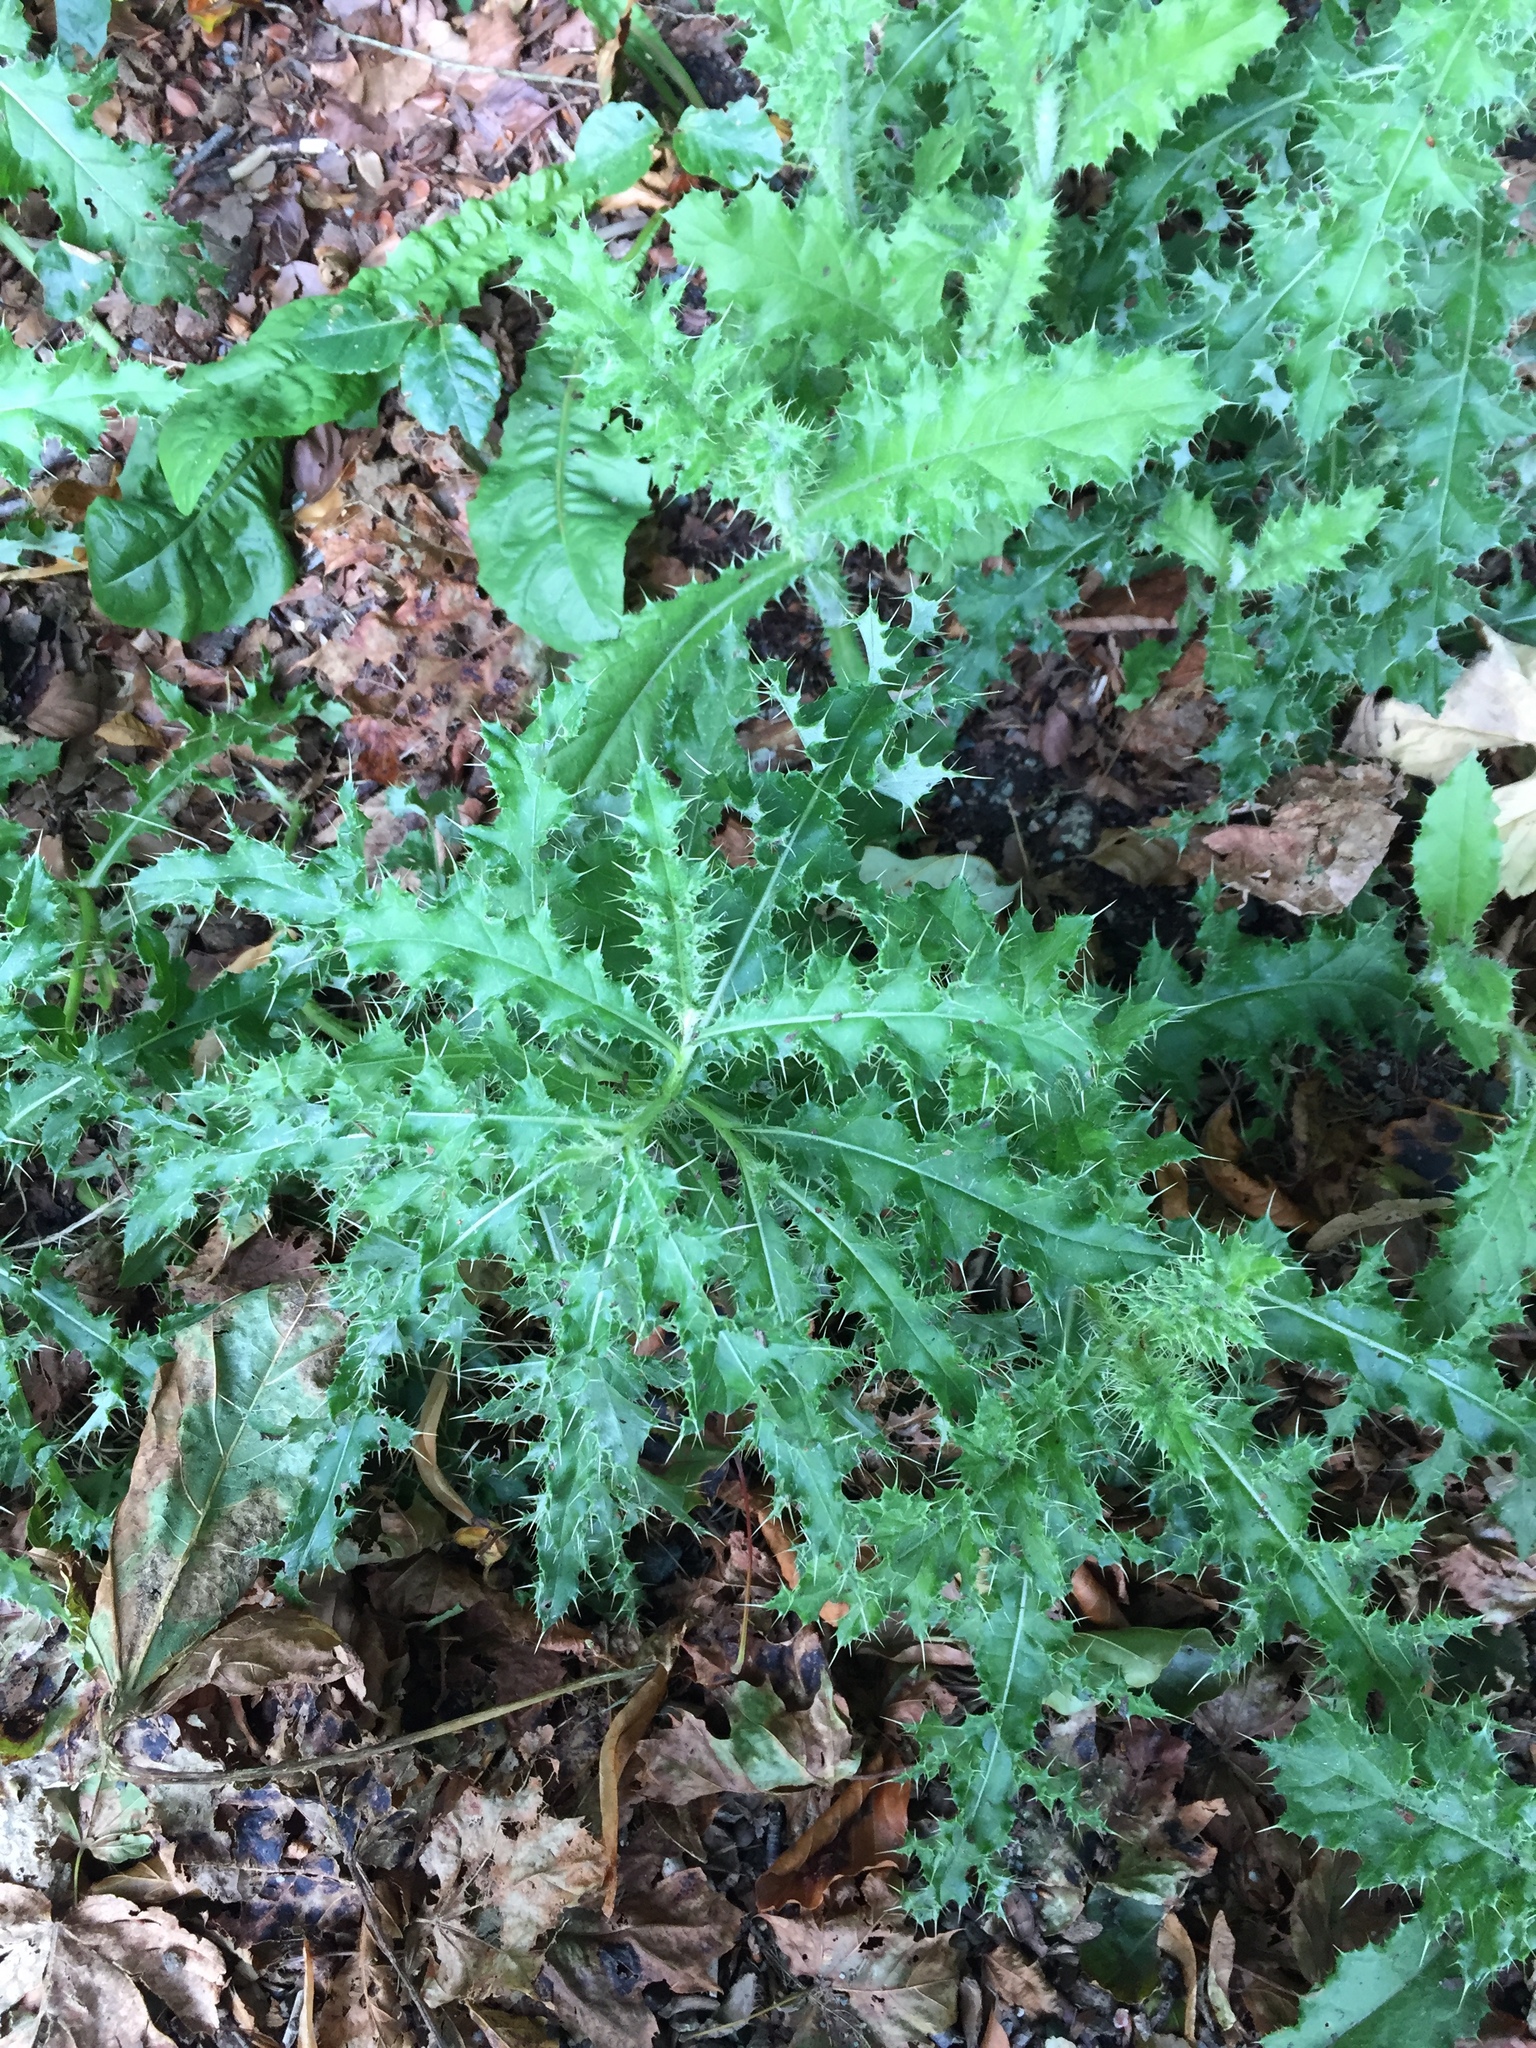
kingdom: Plantae
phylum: Tracheophyta
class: Magnoliopsida
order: Asterales
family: Asteraceae
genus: Cirsium
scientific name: Cirsium arvense
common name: Creeping thistle
